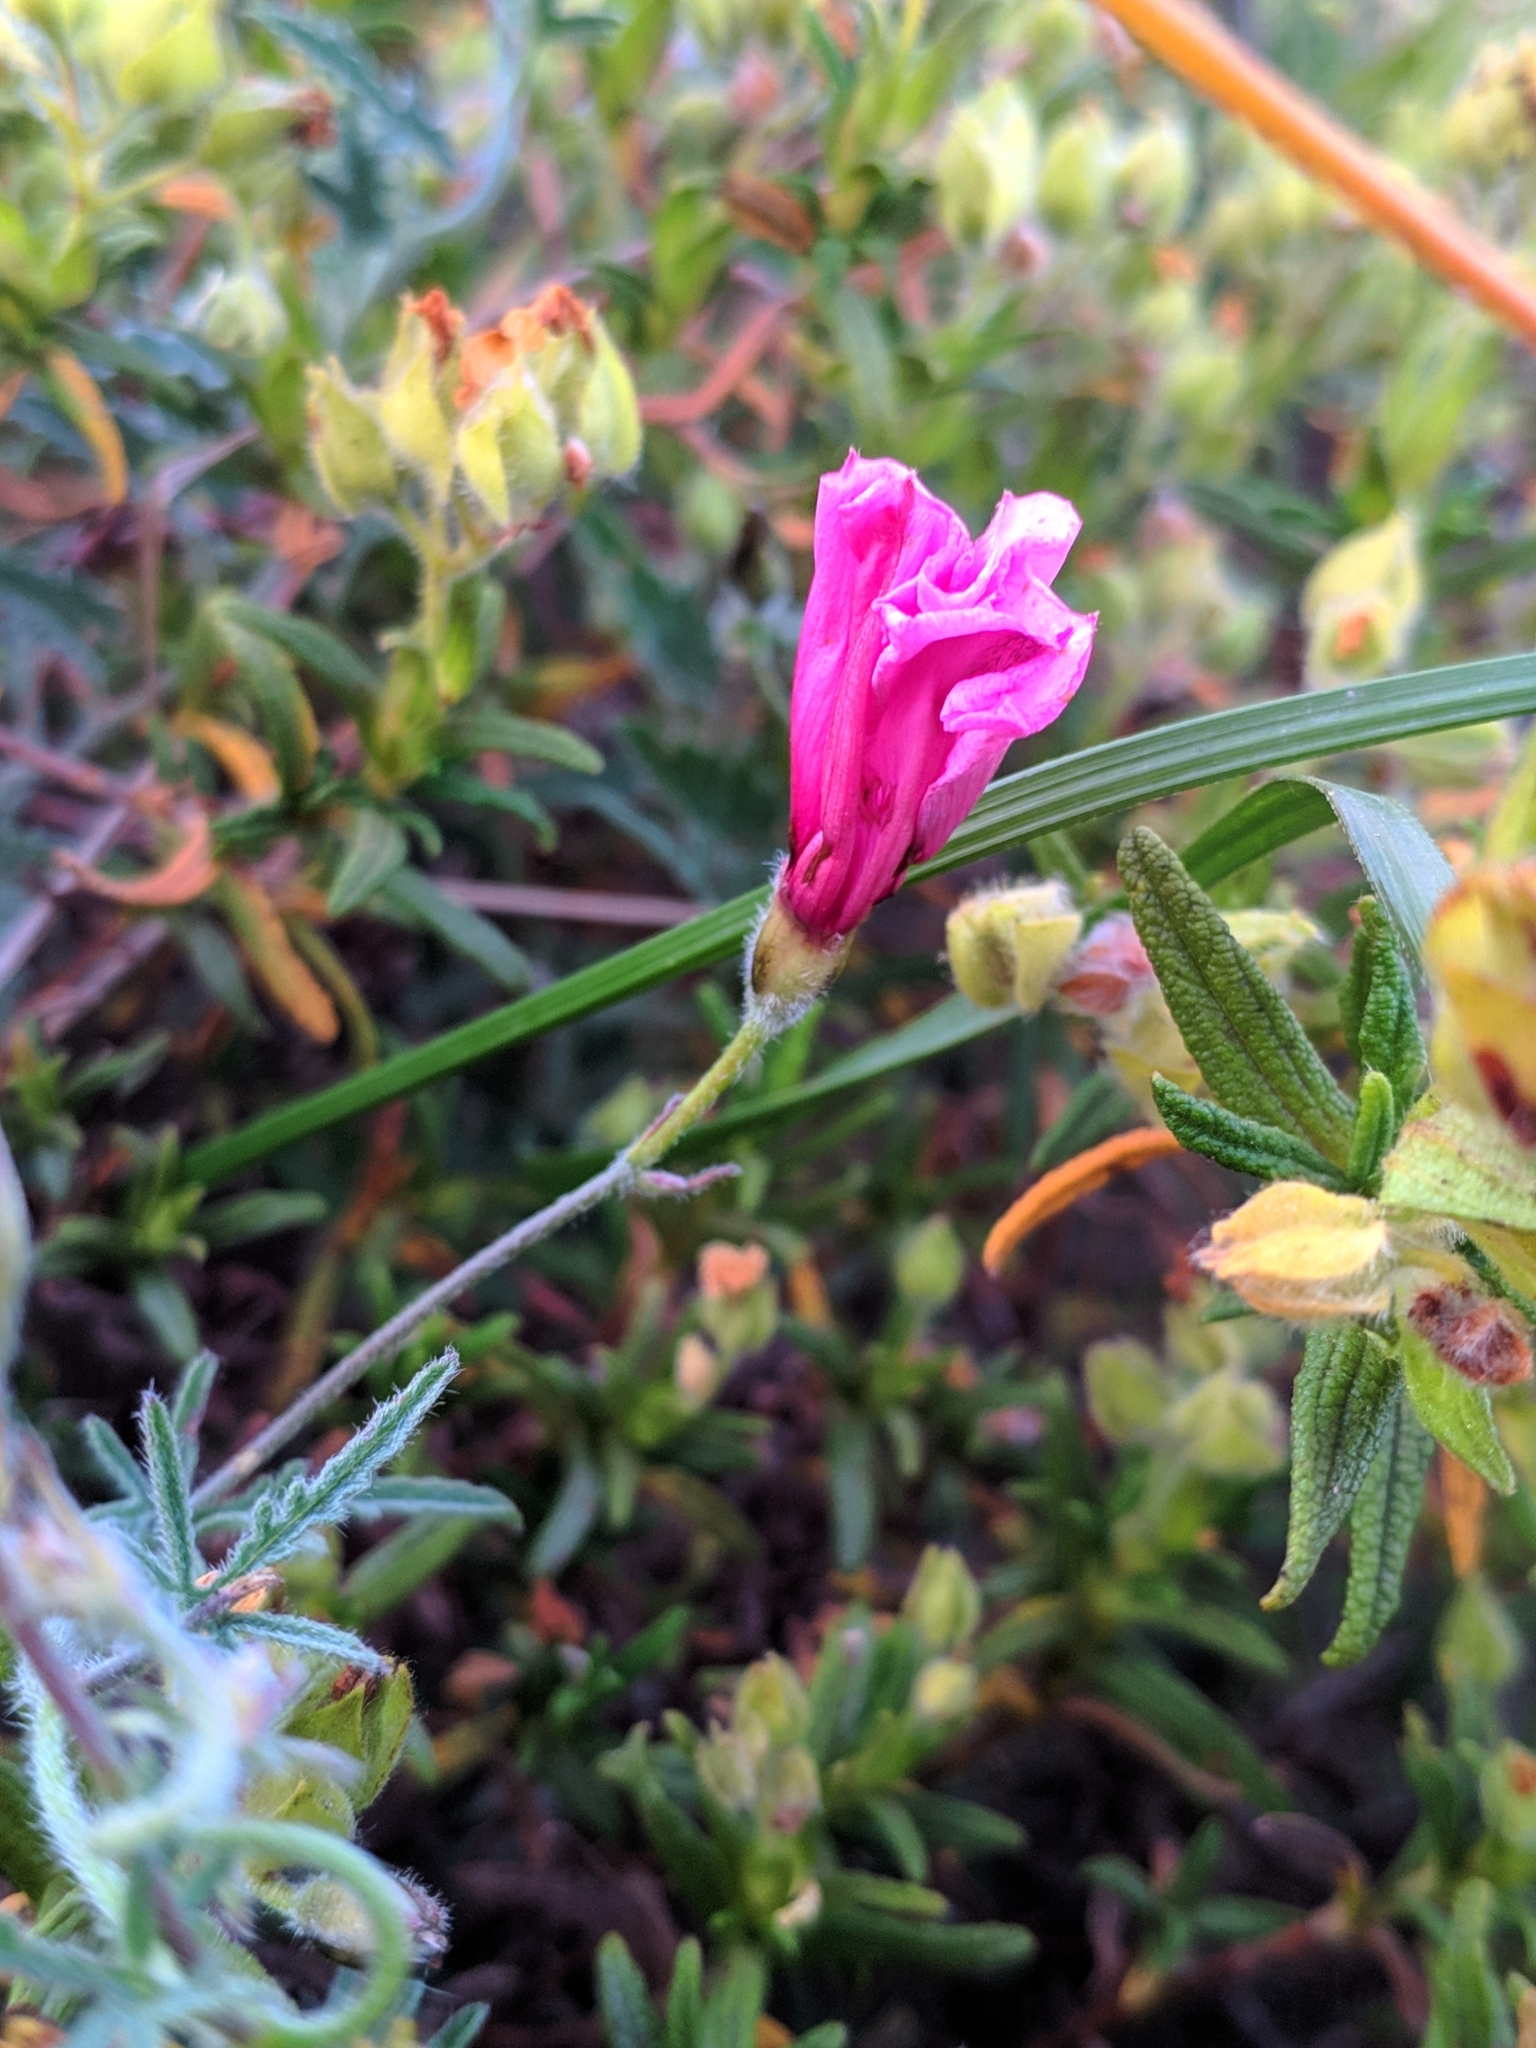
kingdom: Plantae
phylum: Tracheophyta
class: Magnoliopsida
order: Solanales
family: Convolvulaceae
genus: Convolvulus
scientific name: Convolvulus althaeoides
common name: Mallow bindweed
